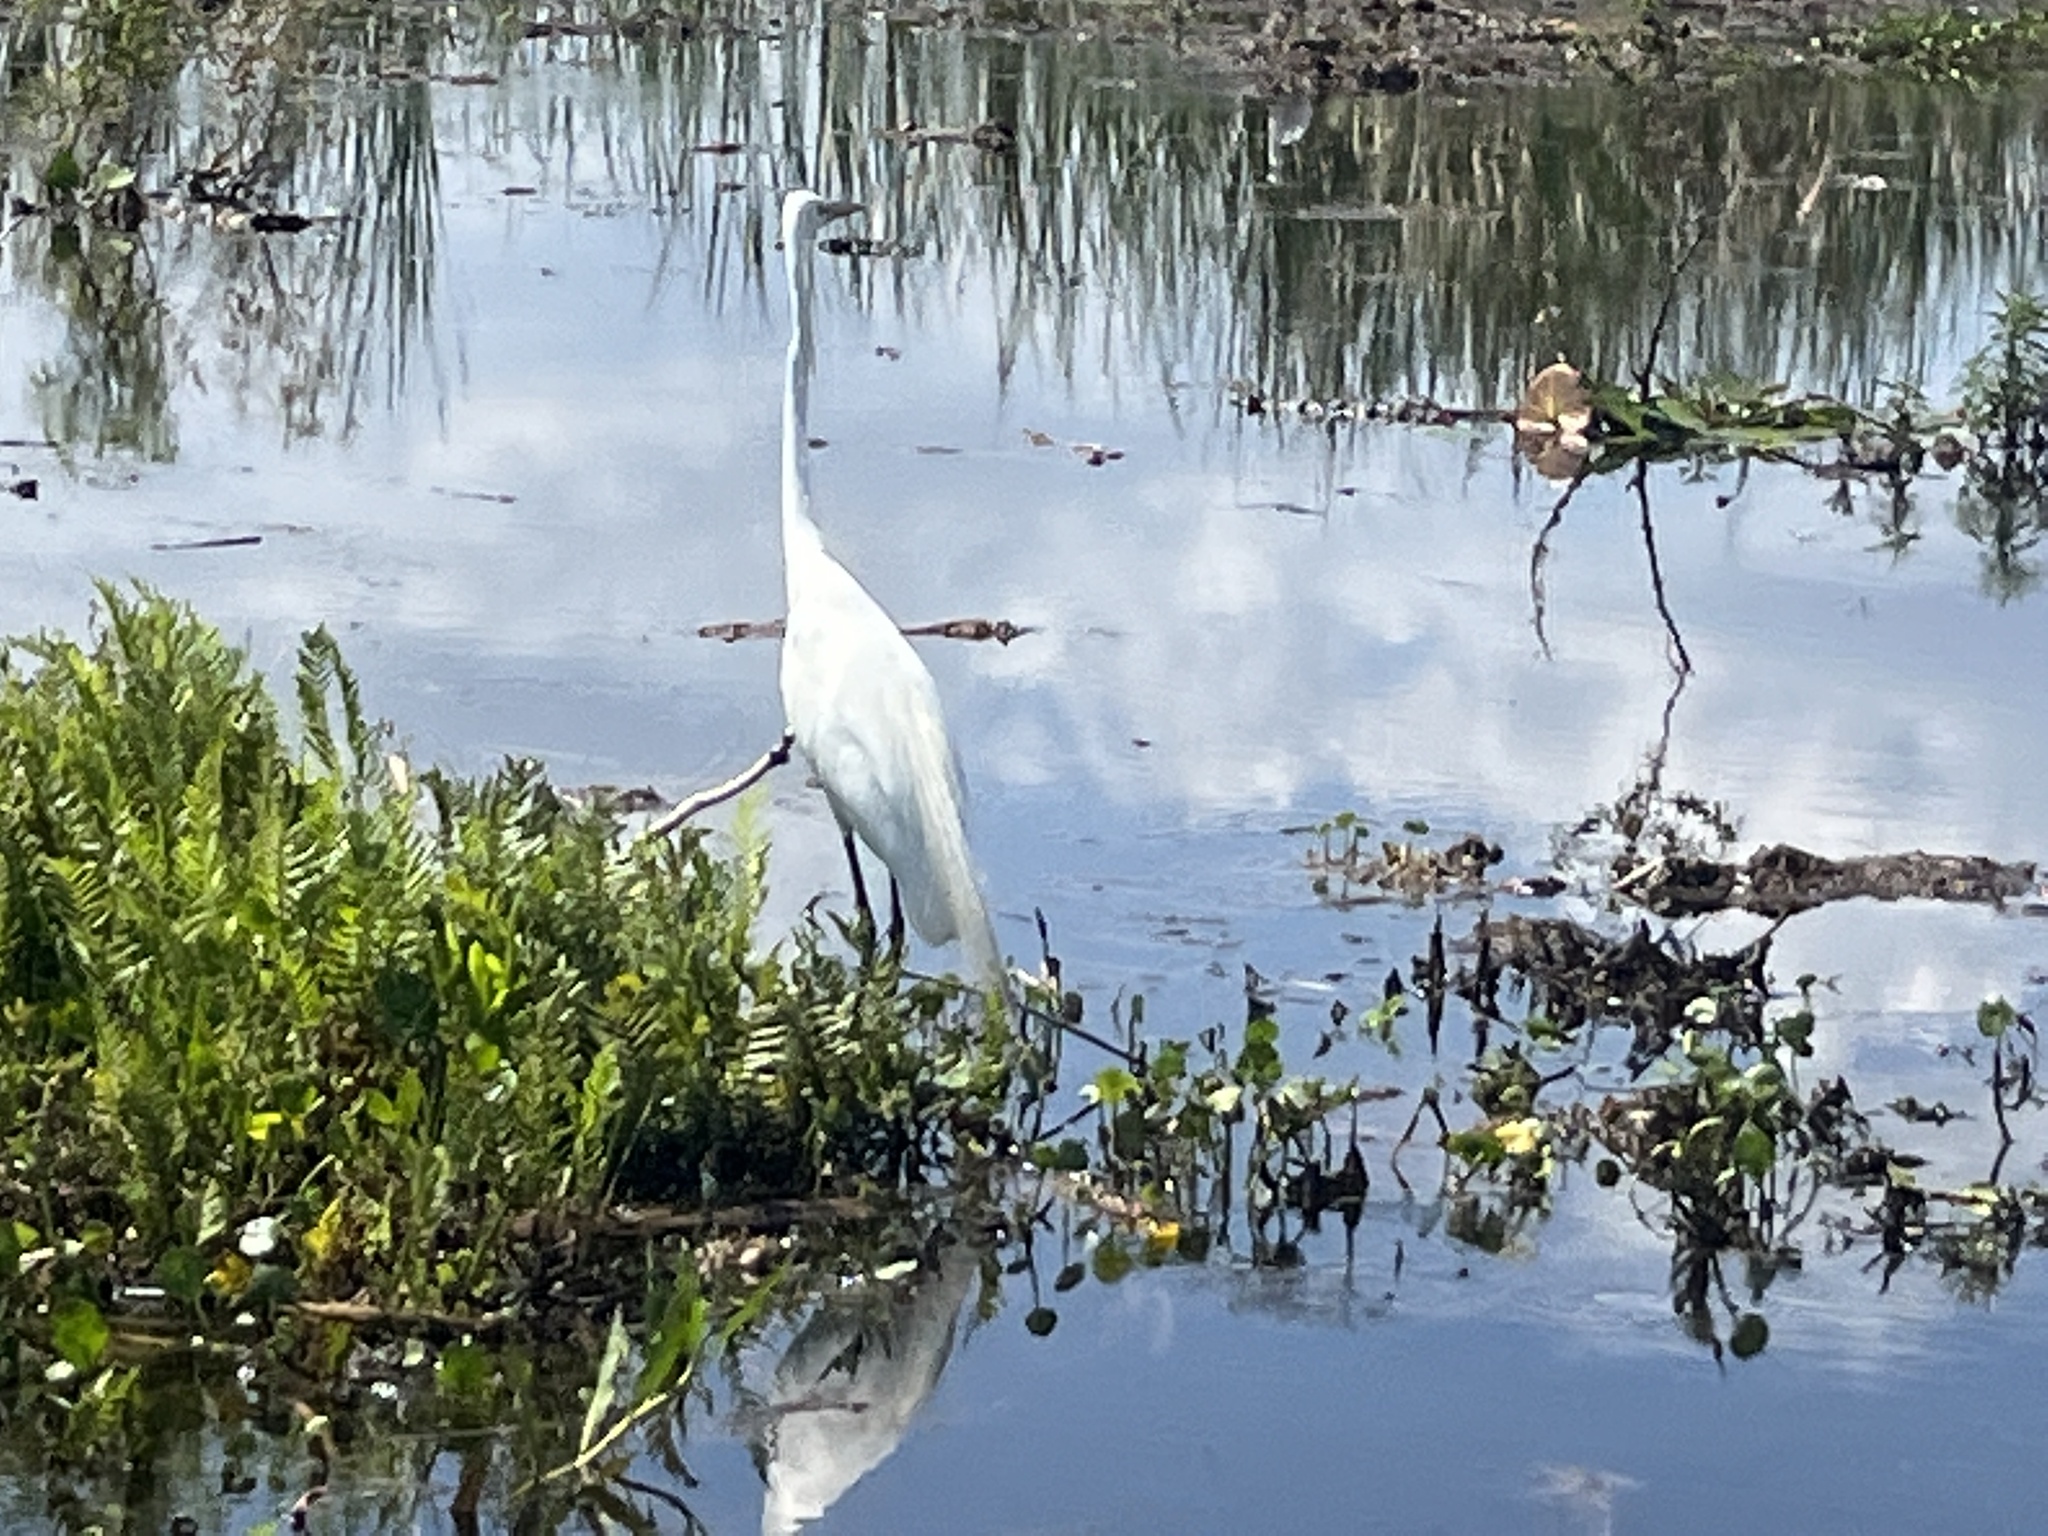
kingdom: Animalia
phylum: Chordata
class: Aves
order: Pelecaniformes
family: Ardeidae
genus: Ardea
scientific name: Ardea alba
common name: Great egret
